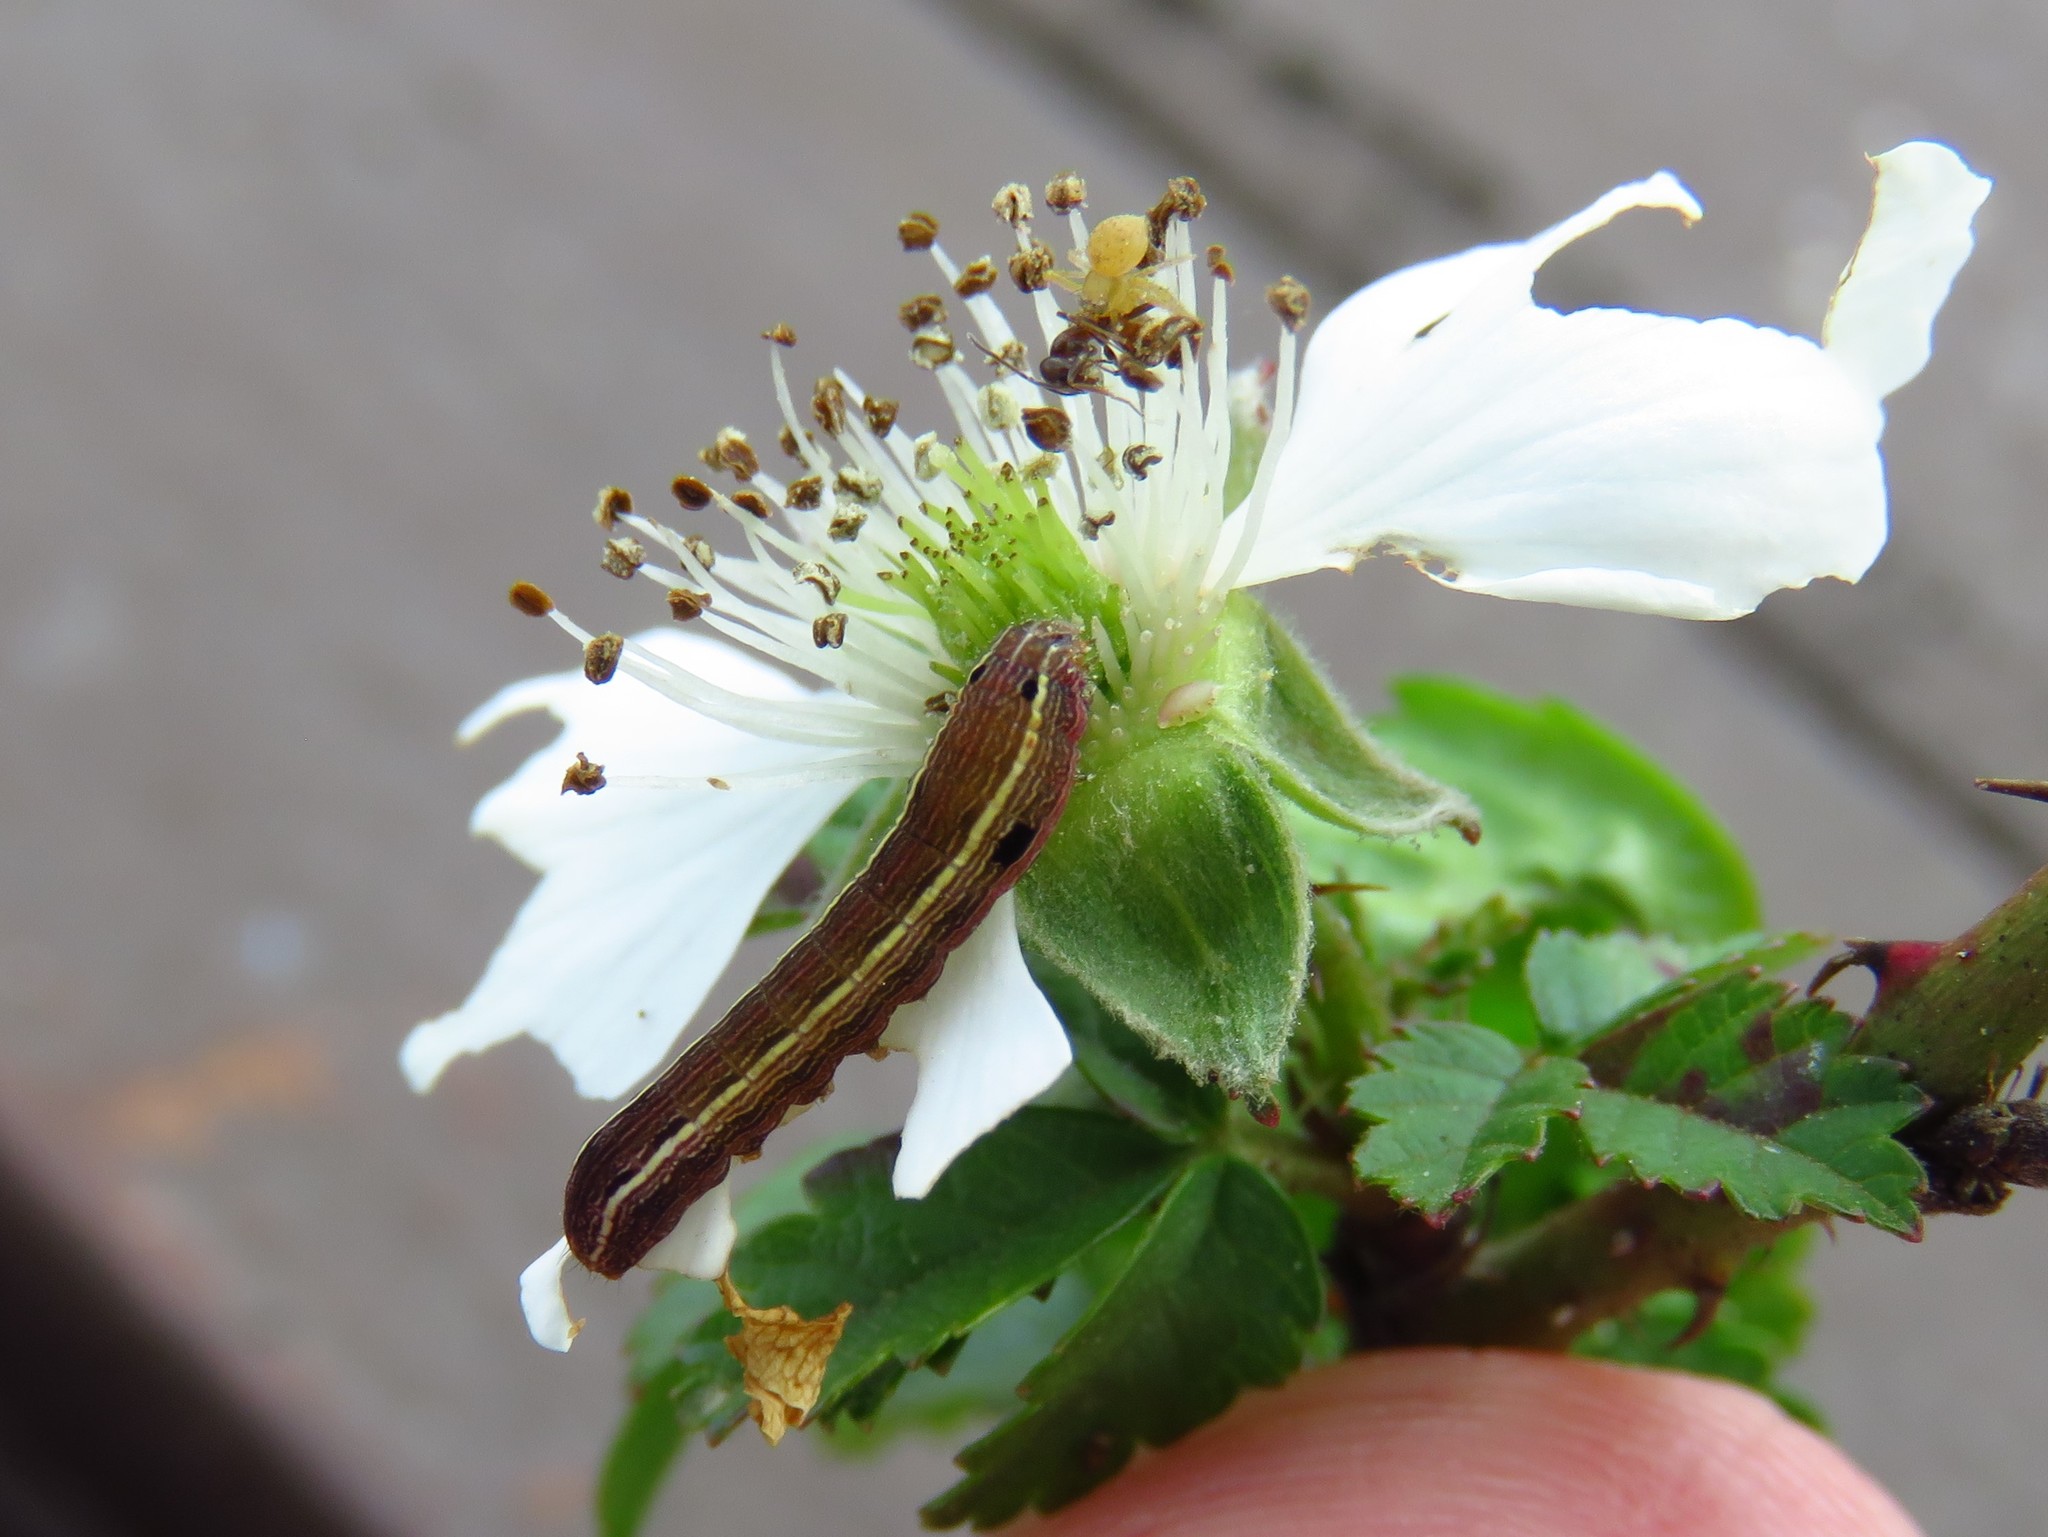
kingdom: Animalia
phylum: Arthropoda
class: Insecta
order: Lepidoptera
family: Noctuidae
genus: Spodoptera
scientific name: Spodoptera ornithogalli
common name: Yellow-striped armyworm
